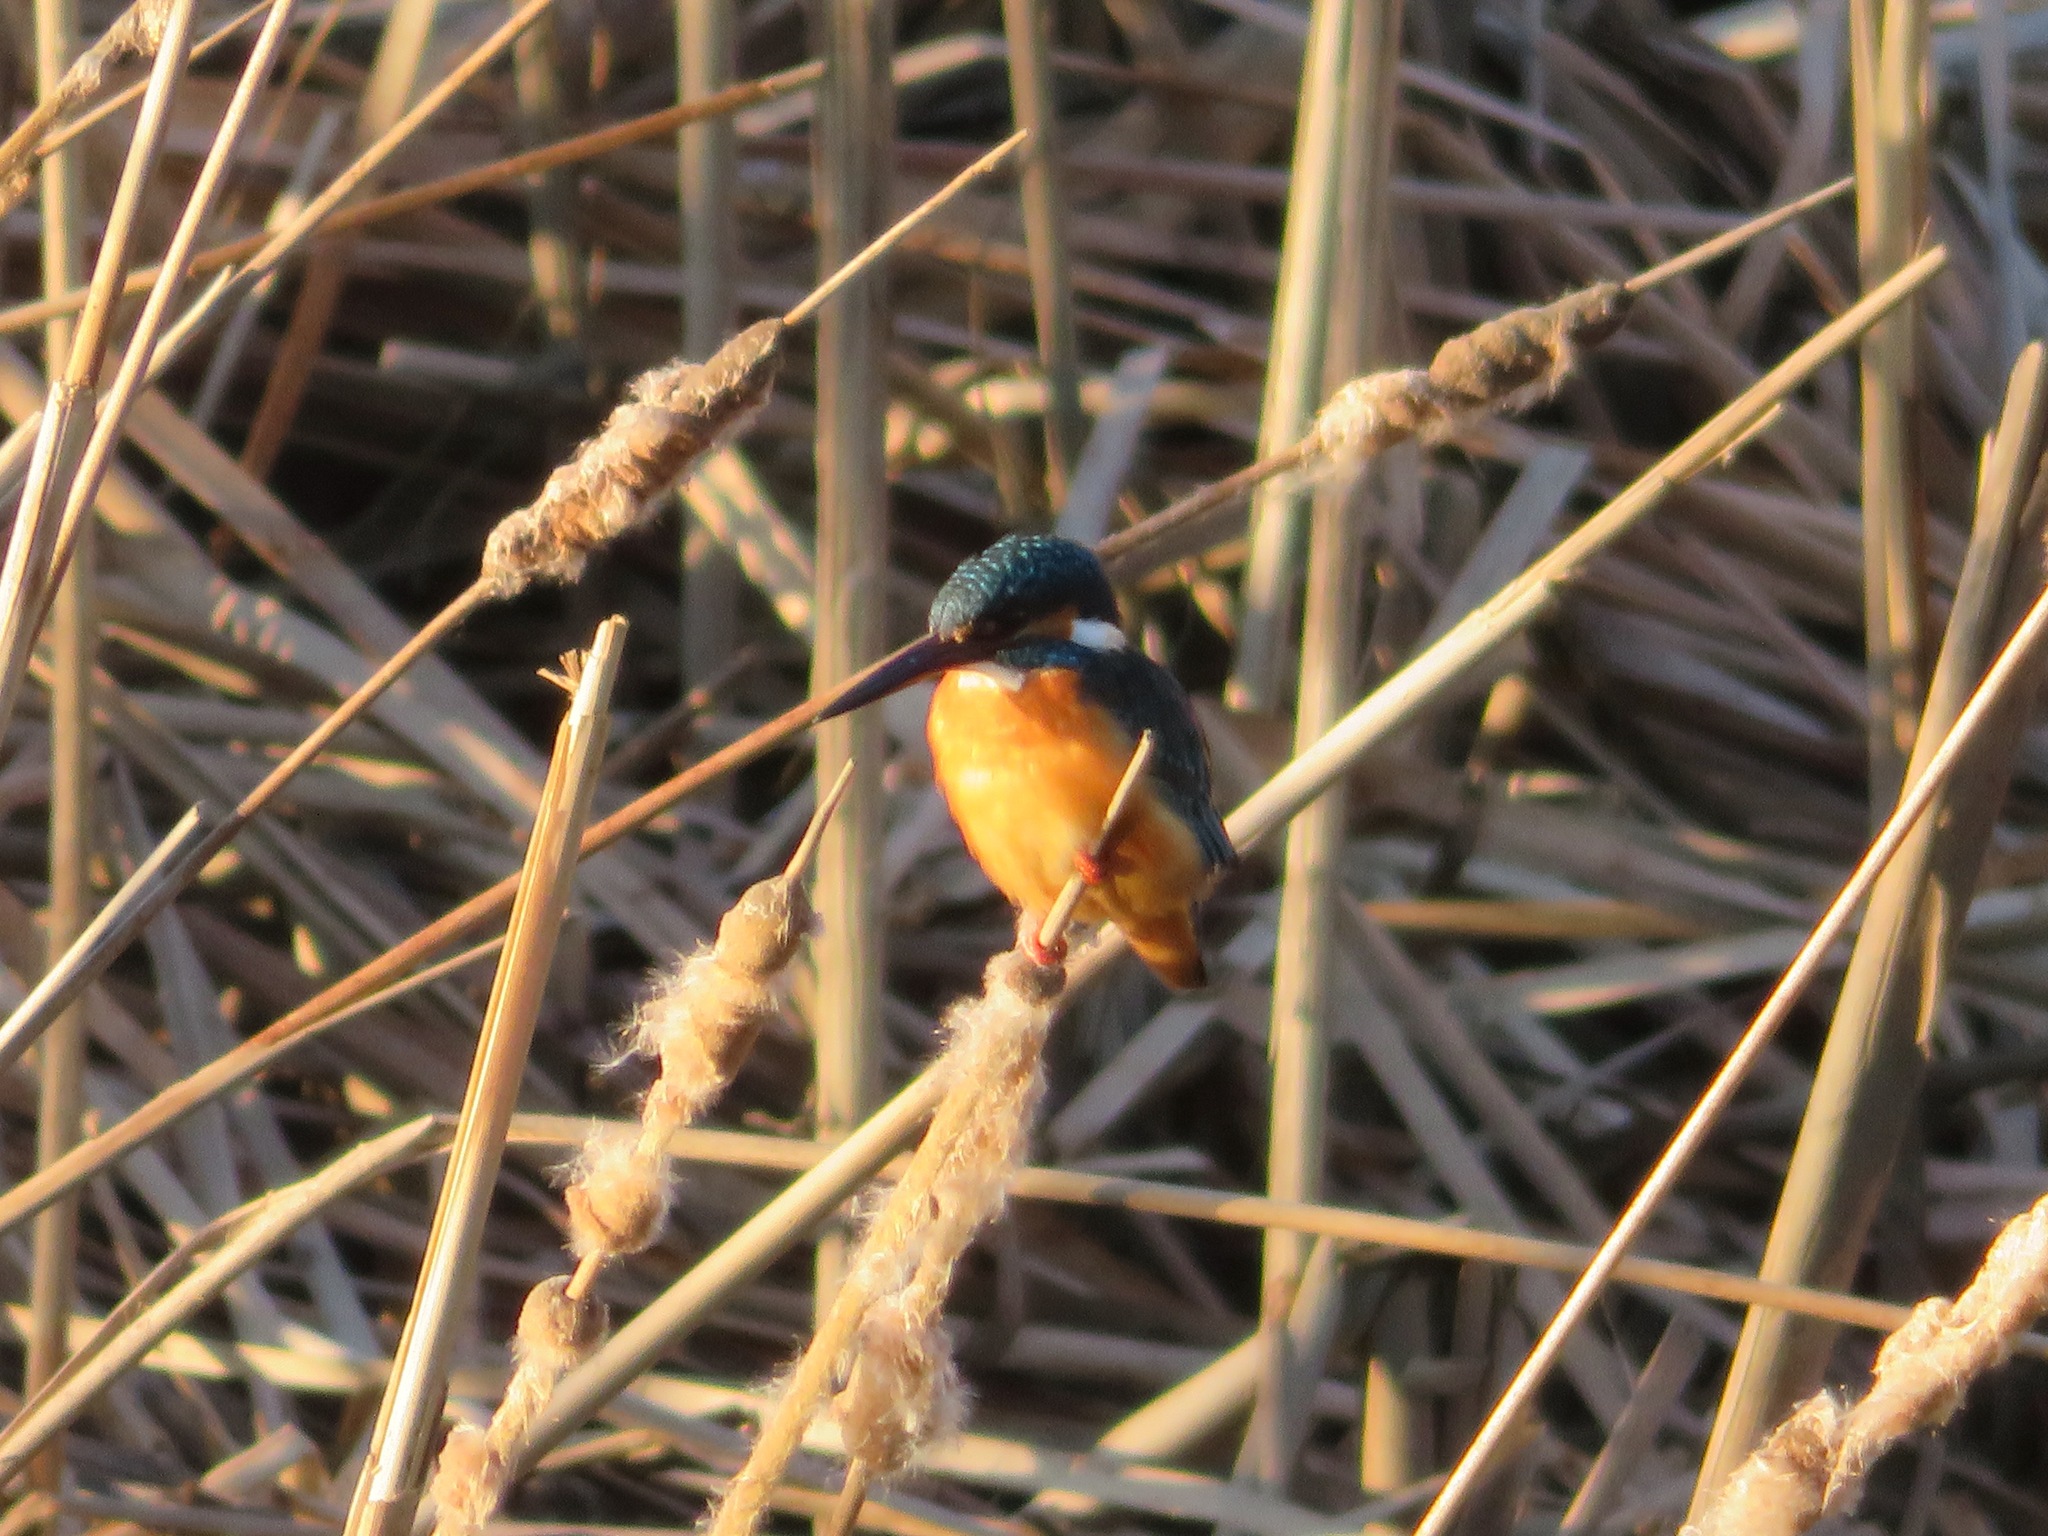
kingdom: Animalia
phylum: Chordata
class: Aves
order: Coraciiformes
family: Alcedinidae
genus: Alcedo
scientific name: Alcedo atthis
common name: Common kingfisher
